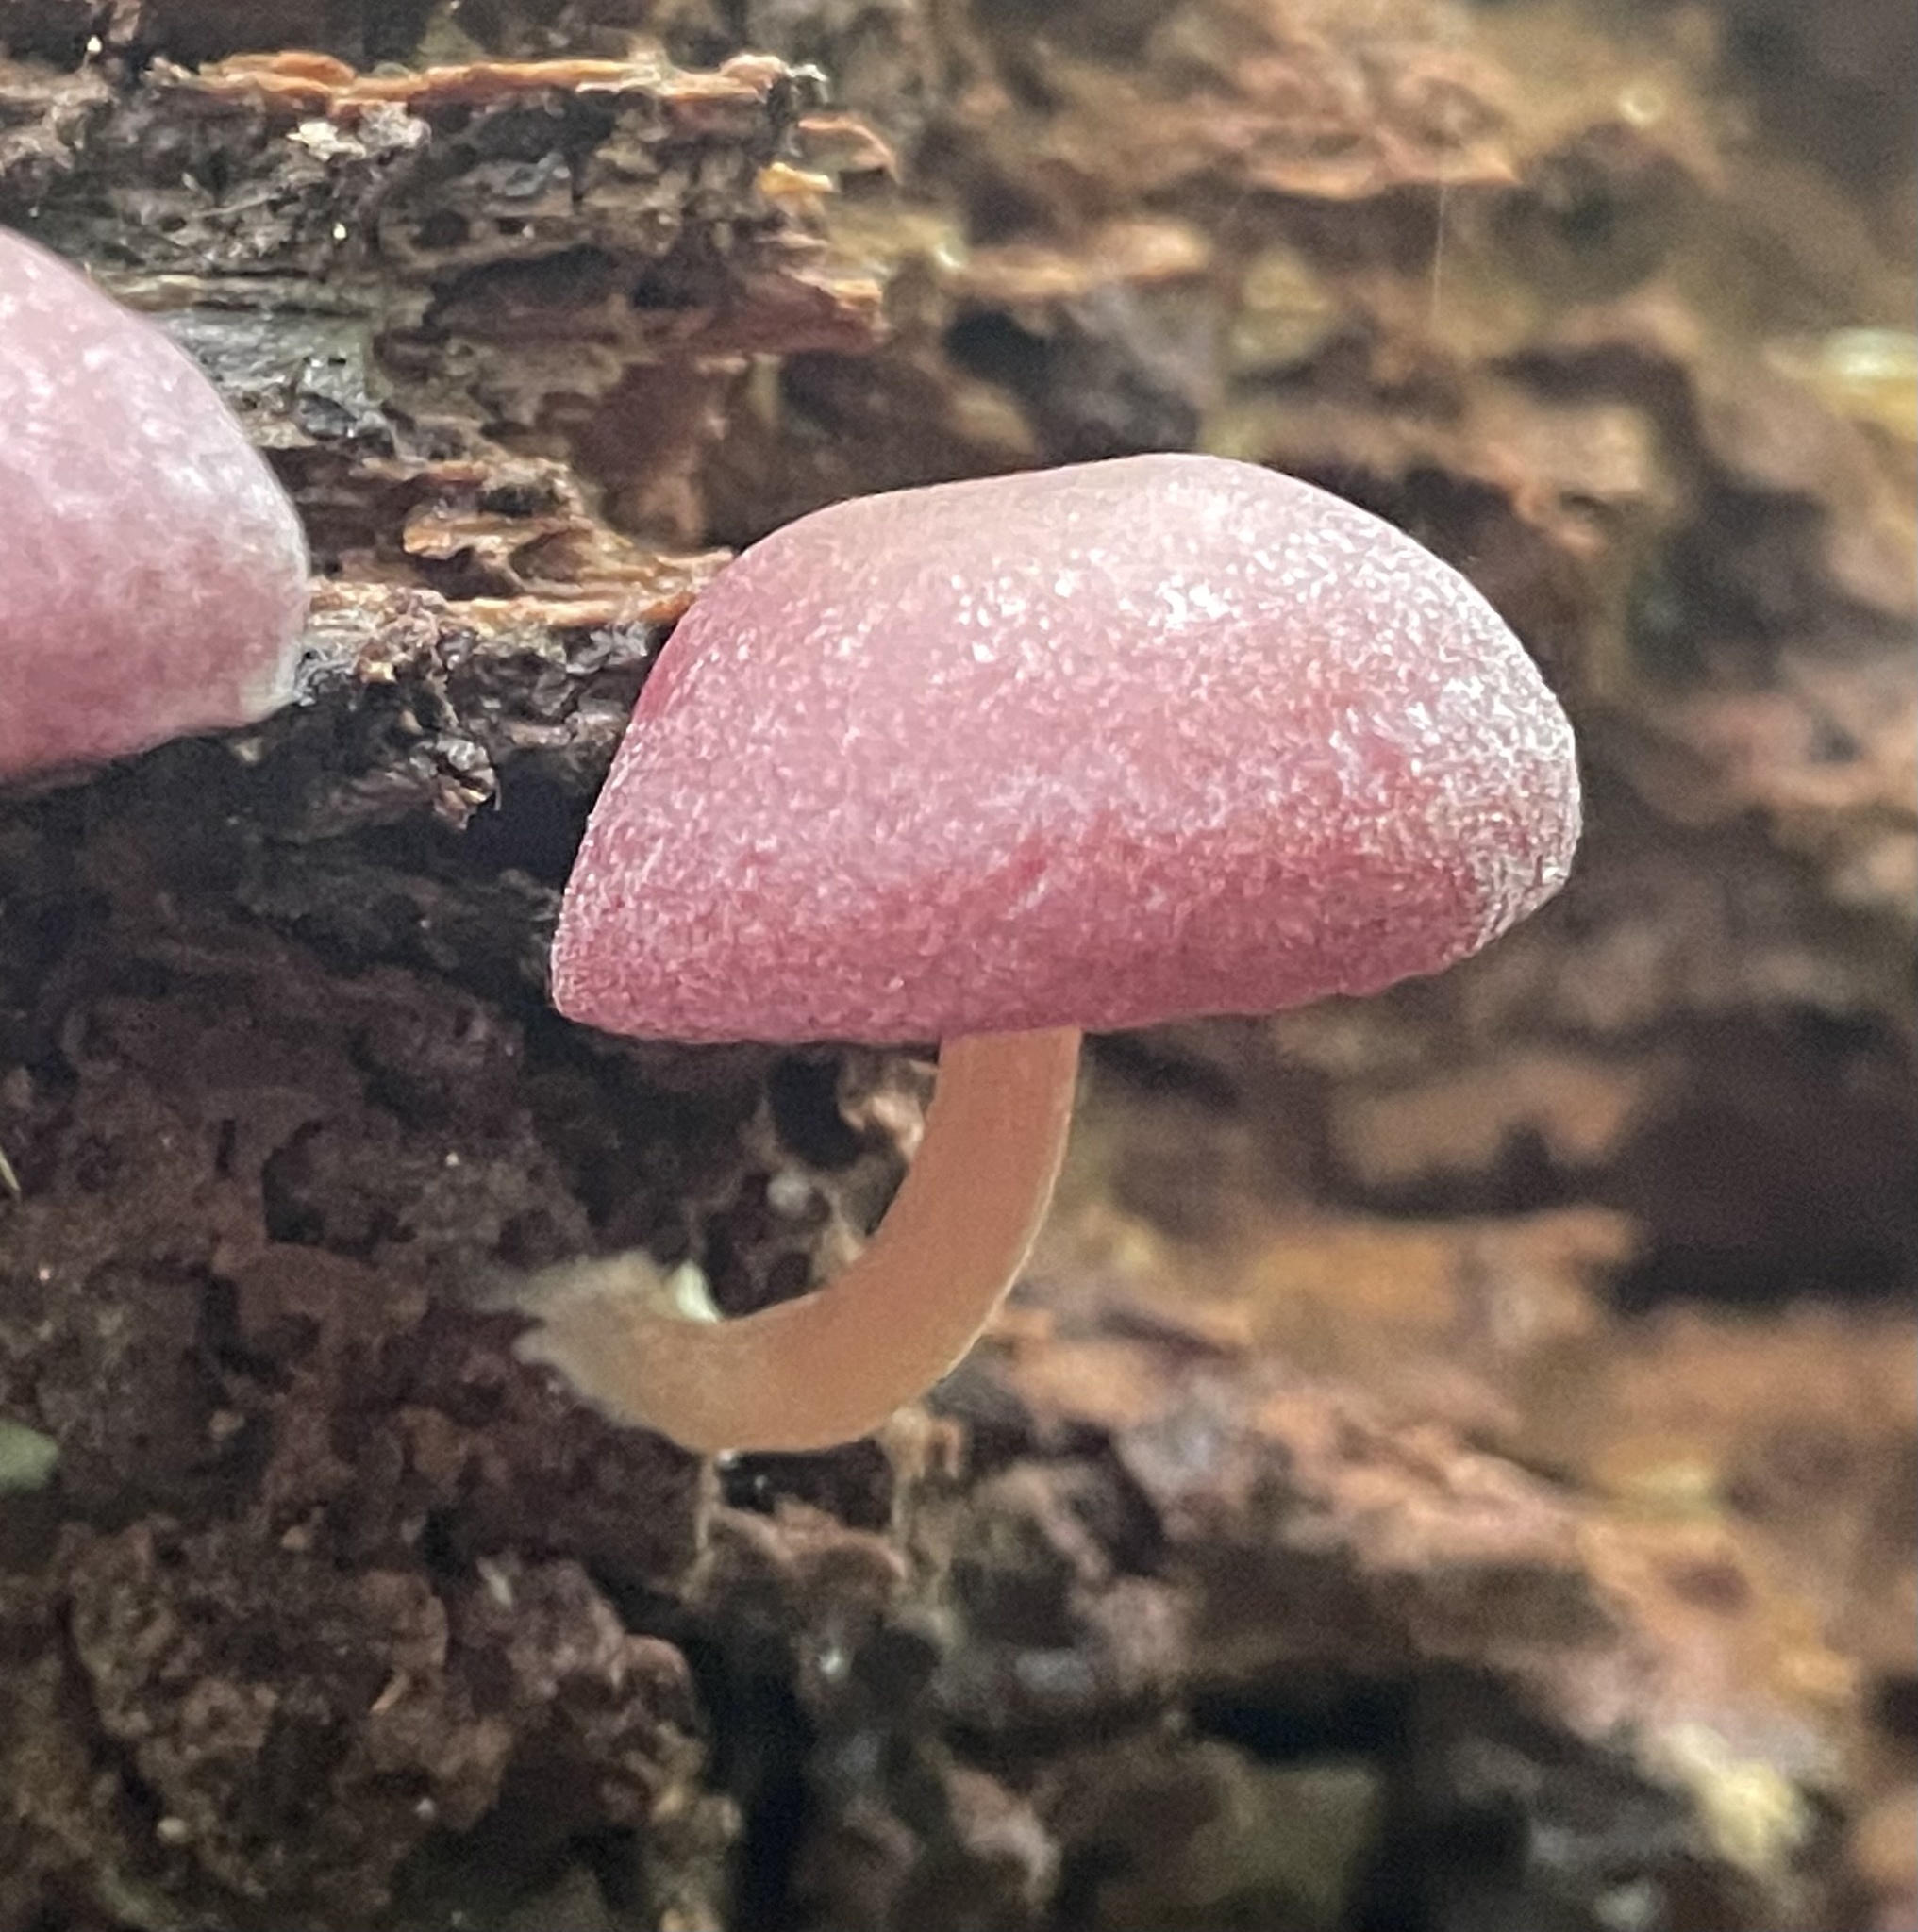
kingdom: Fungi
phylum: Basidiomycota
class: Agaricomycetes
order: Agaricales
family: Callistosporiaceae
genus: Callistosporium
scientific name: Callistosporium purpureomarginatum
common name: Purple-edged lute
